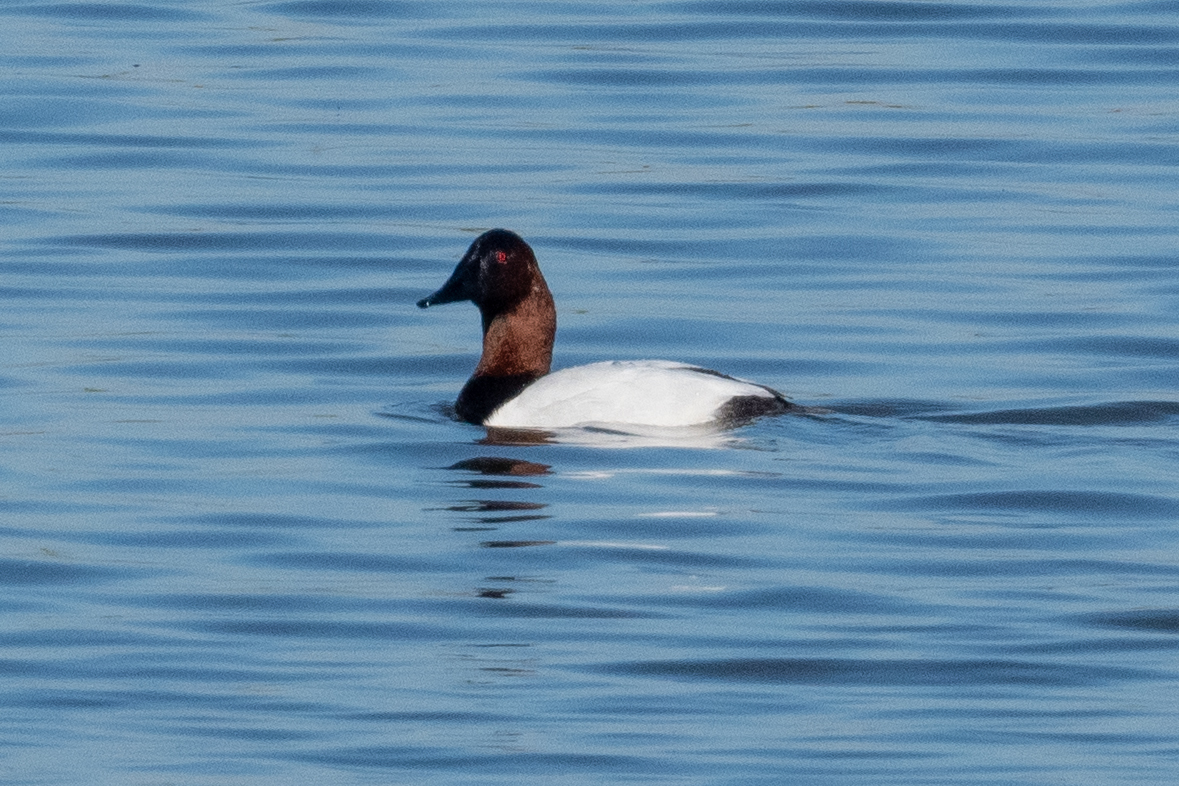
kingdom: Animalia
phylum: Chordata
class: Aves
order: Anseriformes
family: Anatidae
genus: Aythya
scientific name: Aythya valisineria
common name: Canvasback
